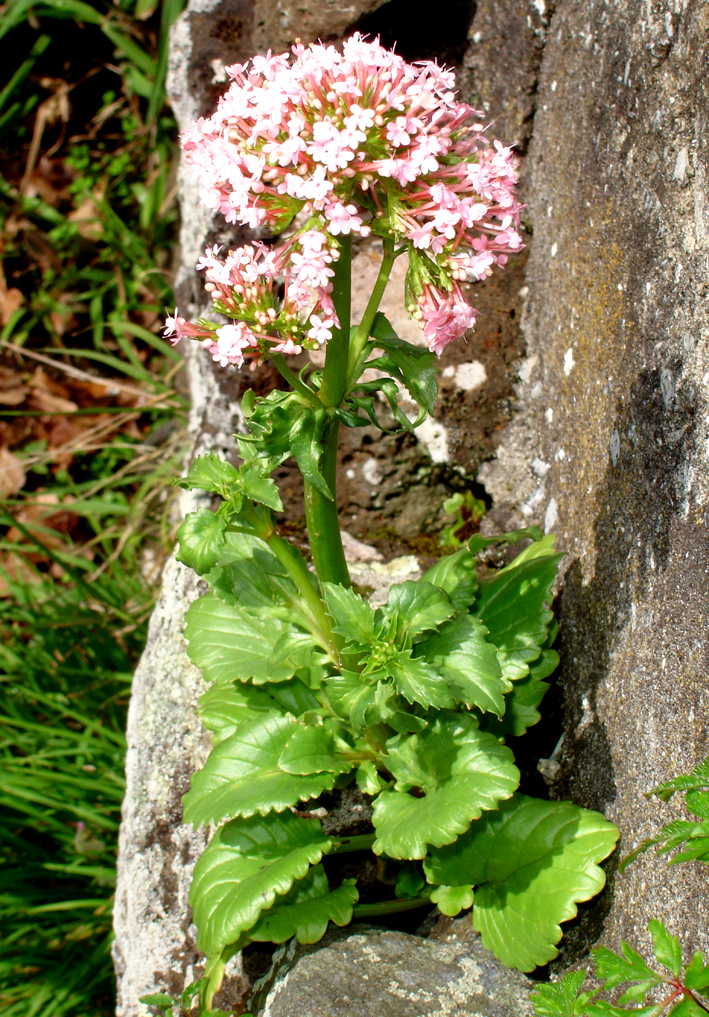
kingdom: Plantae
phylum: Tracheophyta
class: Magnoliopsida
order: Dipsacales
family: Caprifoliaceae
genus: Centranthus
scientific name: Centranthus macrosiphon
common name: Spanish-valerian
